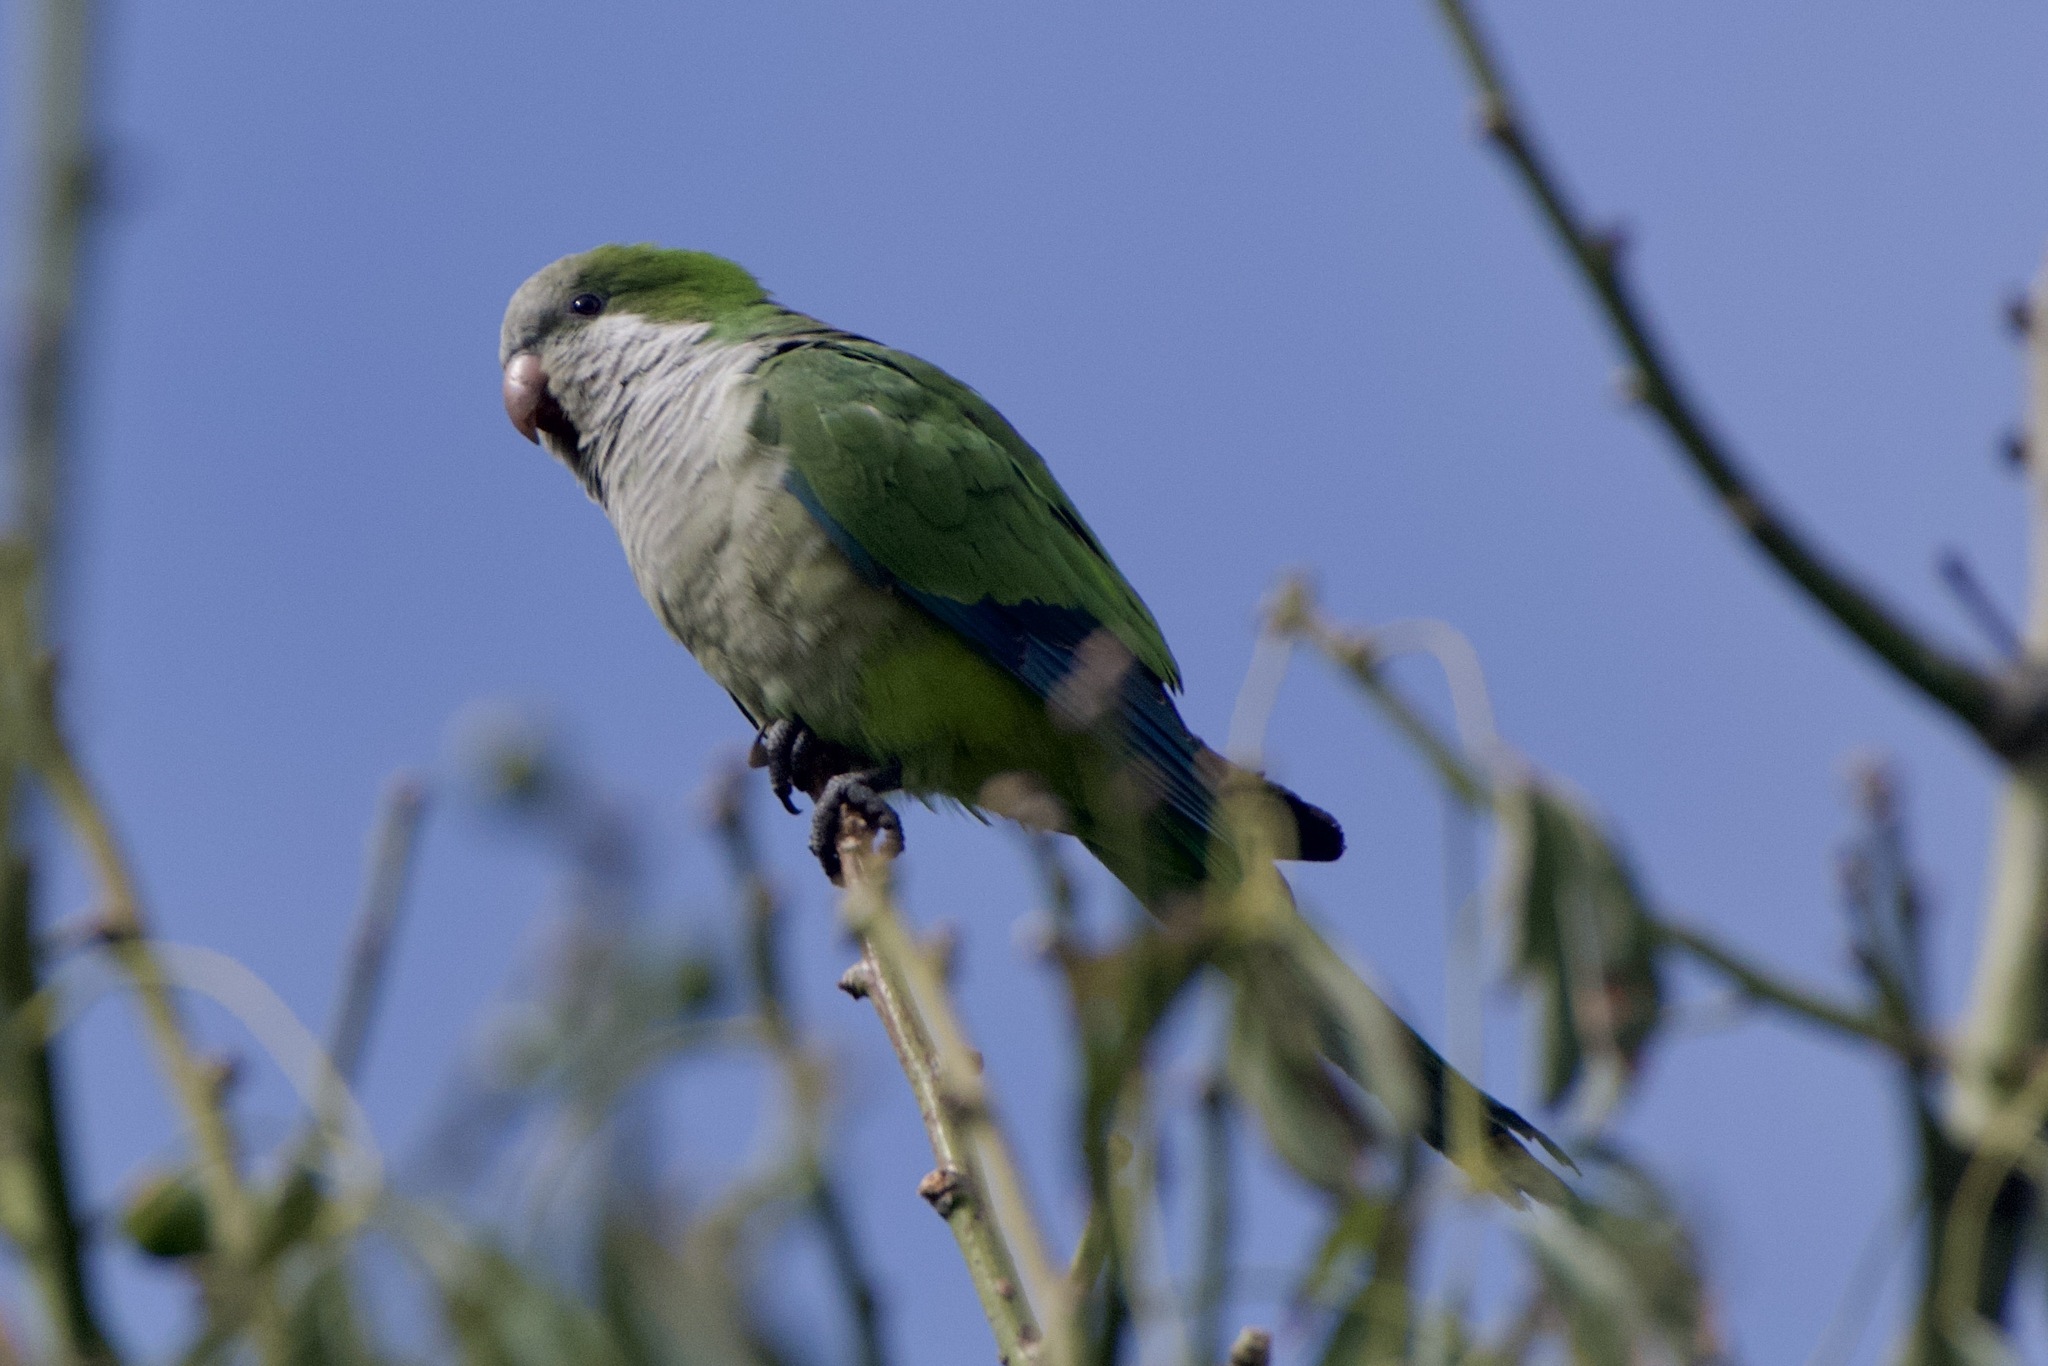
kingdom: Animalia
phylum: Chordata
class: Aves
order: Psittaciformes
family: Psittacidae
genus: Myiopsitta
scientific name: Myiopsitta monachus
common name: Monk parakeet
